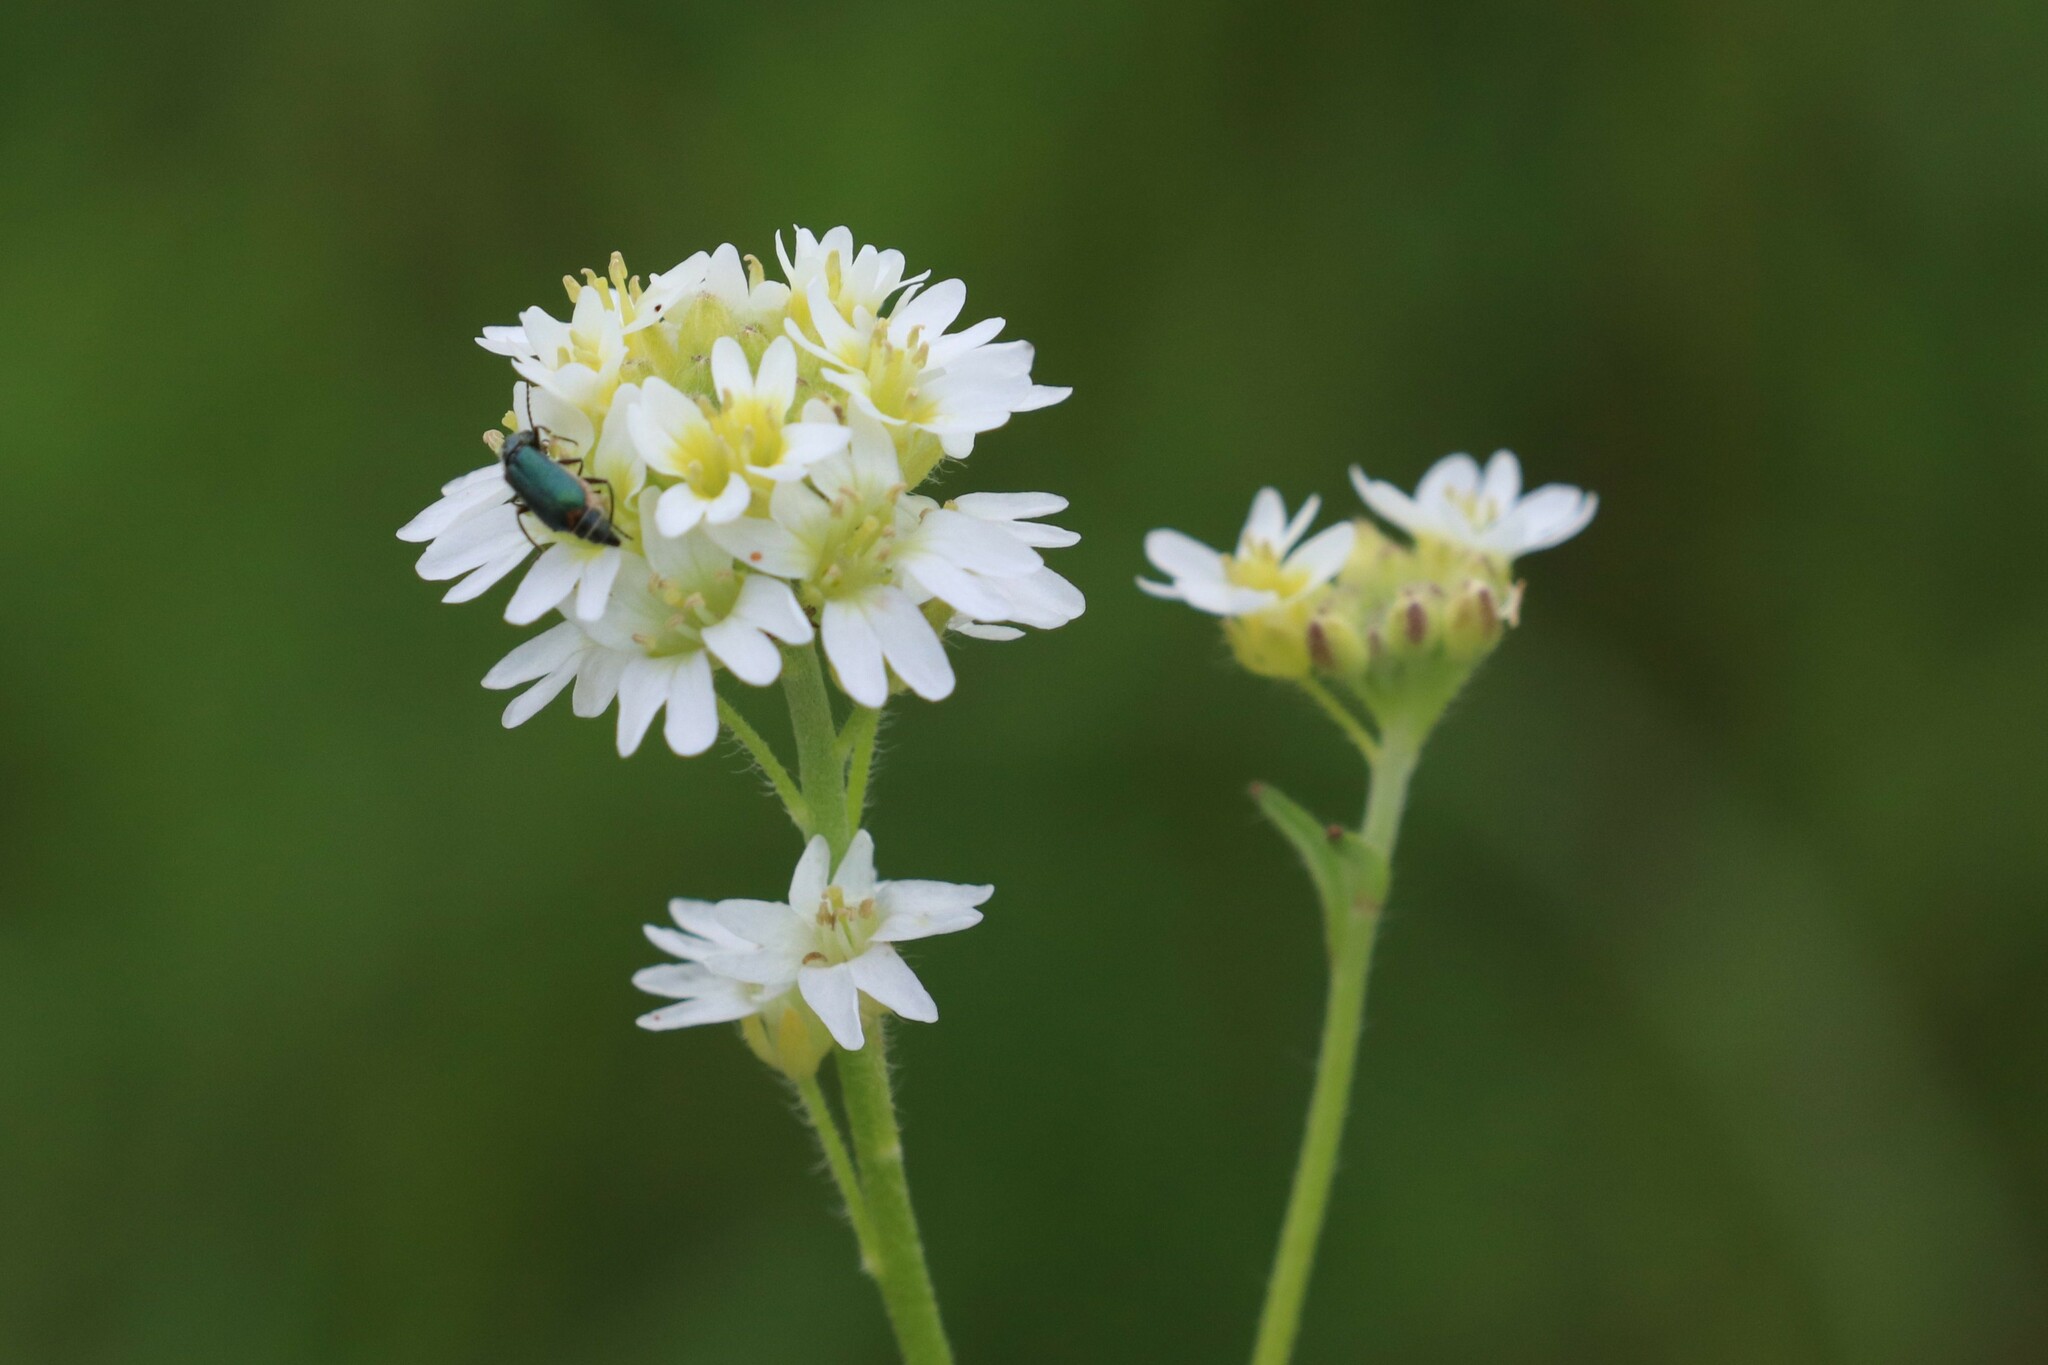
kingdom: Plantae
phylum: Tracheophyta
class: Magnoliopsida
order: Brassicales
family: Brassicaceae
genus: Berteroa
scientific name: Berteroa incana
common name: Hoary alison
